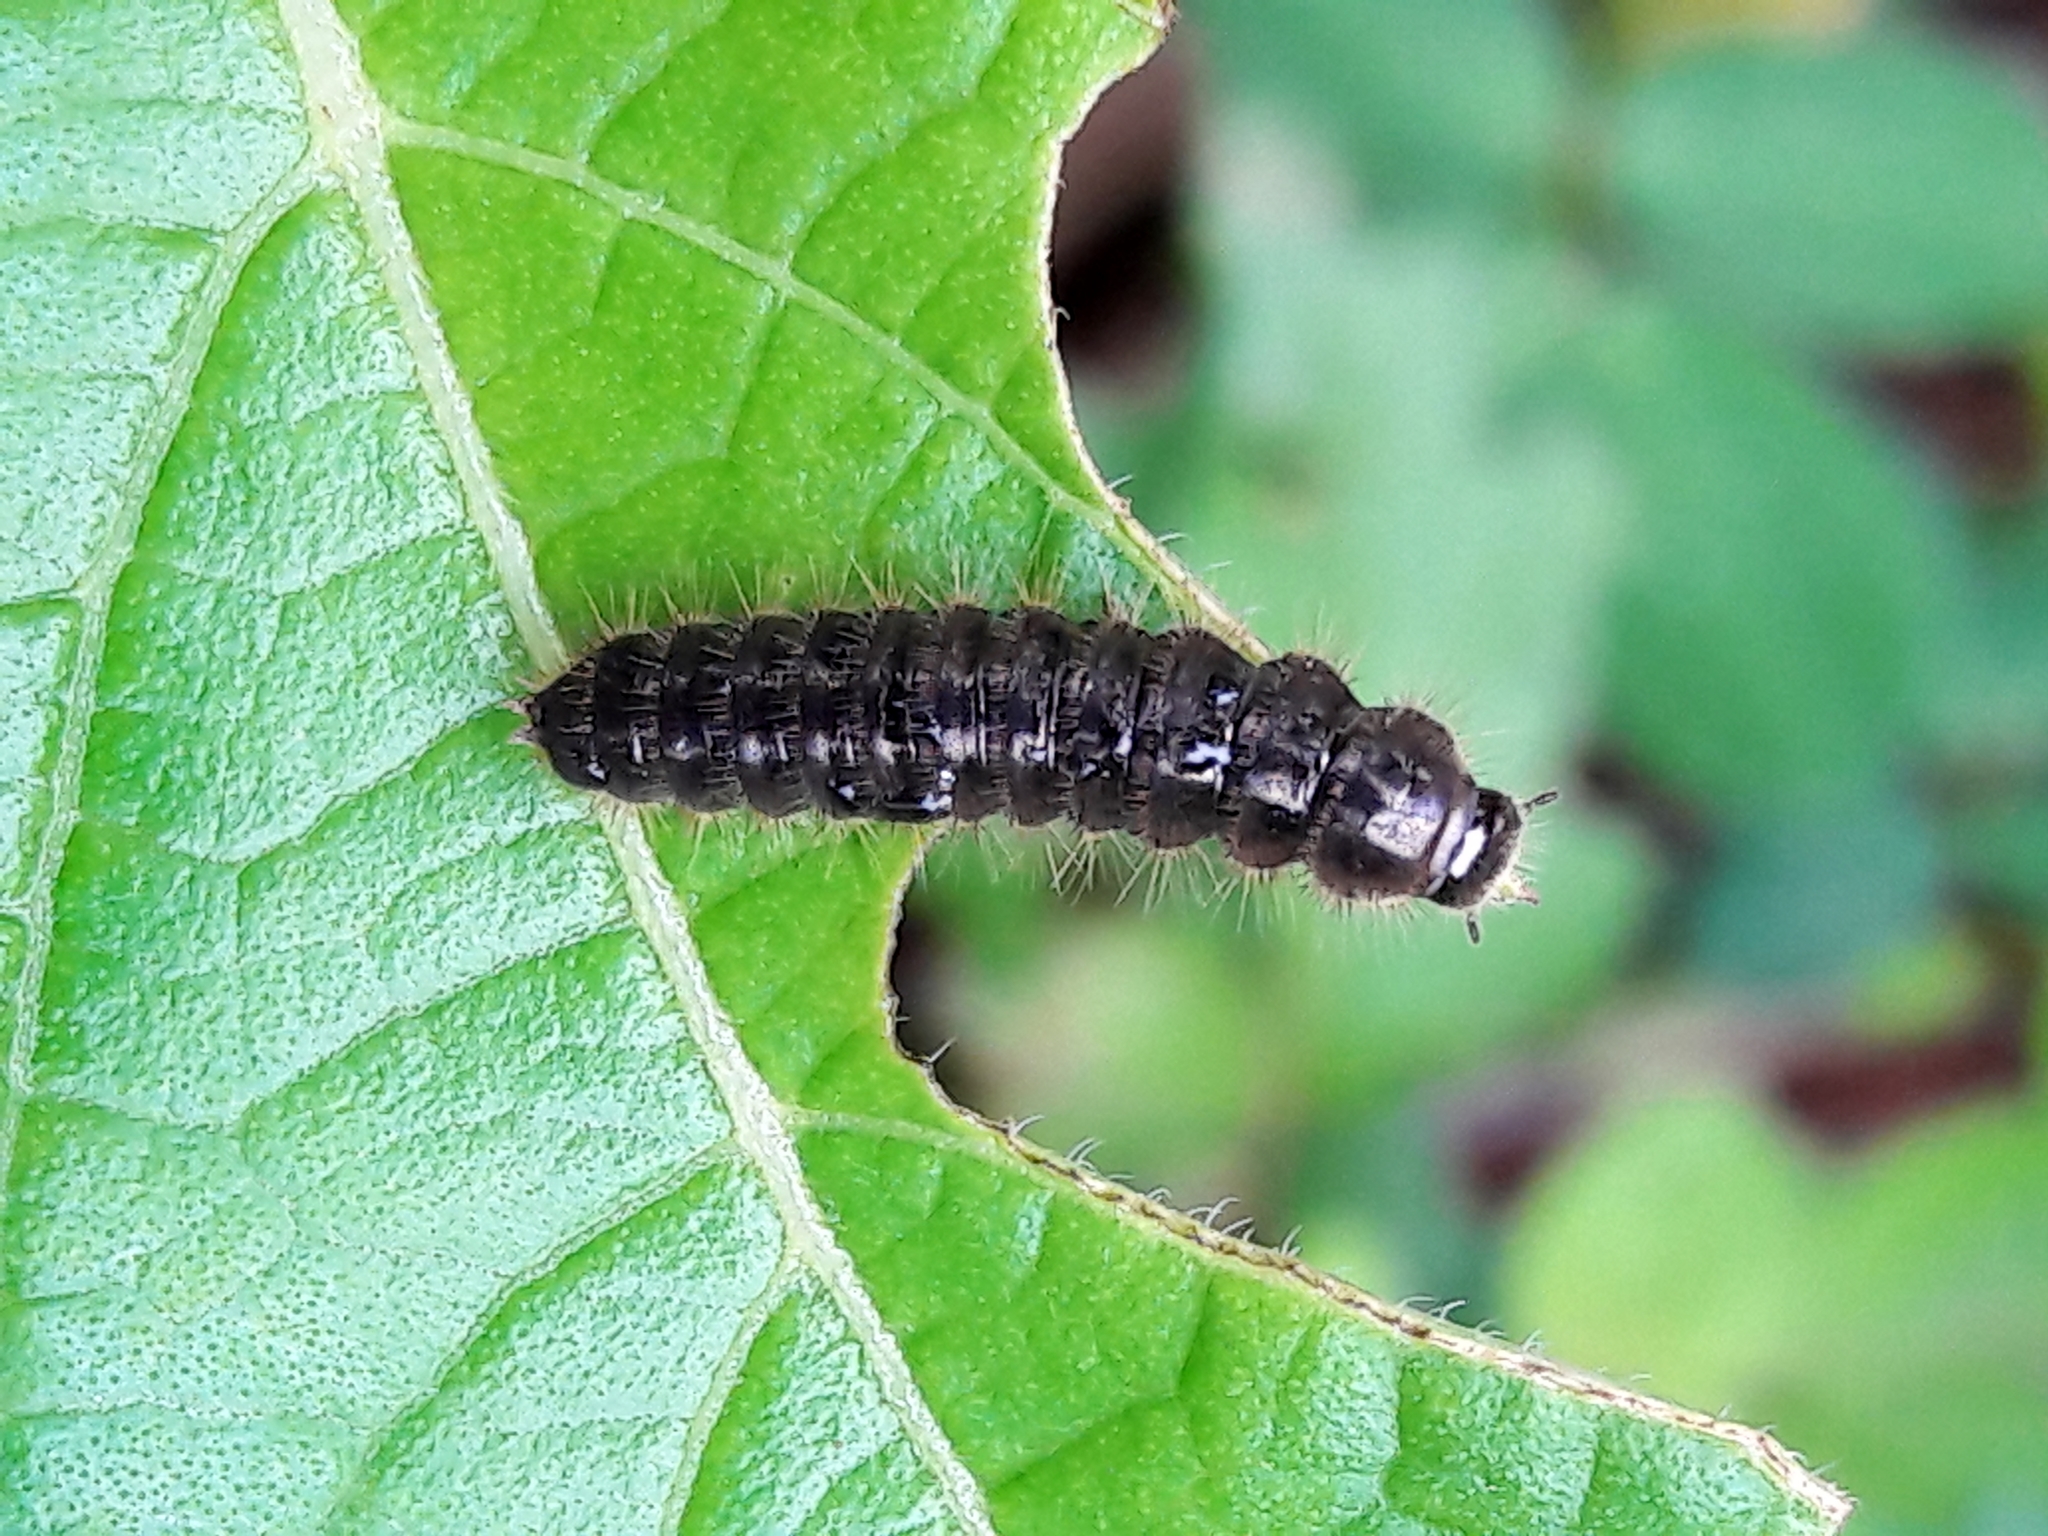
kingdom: Animalia
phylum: Arthropoda
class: Insecta
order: Coleoptera
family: Tenebrionidae
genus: Lagria
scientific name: Lagria villosa
